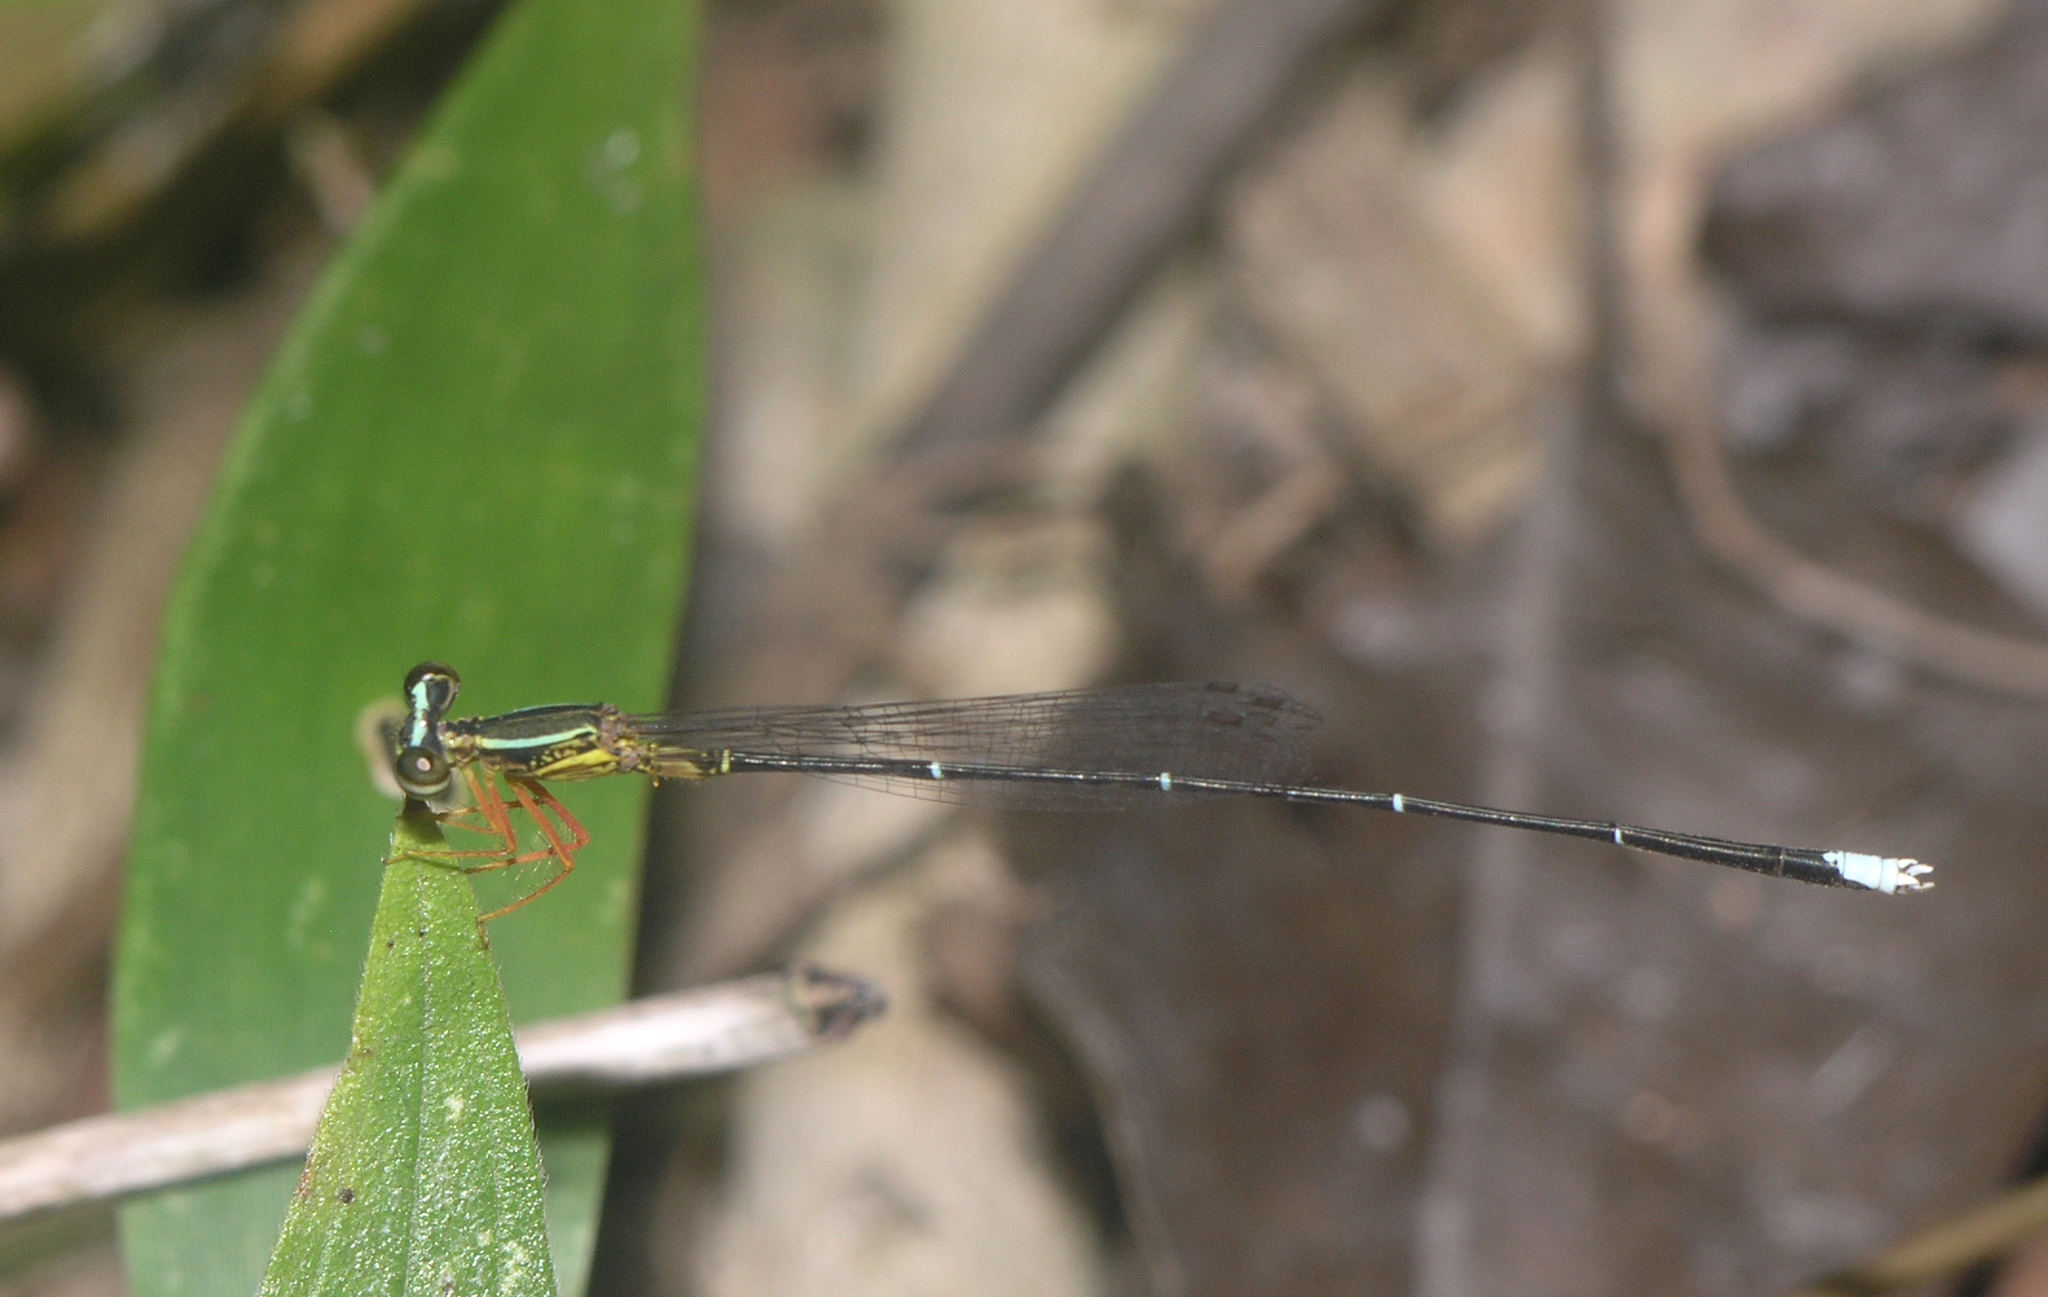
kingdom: Animalia
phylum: Arthropoda
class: Insecta
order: Odonata
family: Platycnemididae
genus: Copera
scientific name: Copera vittata
